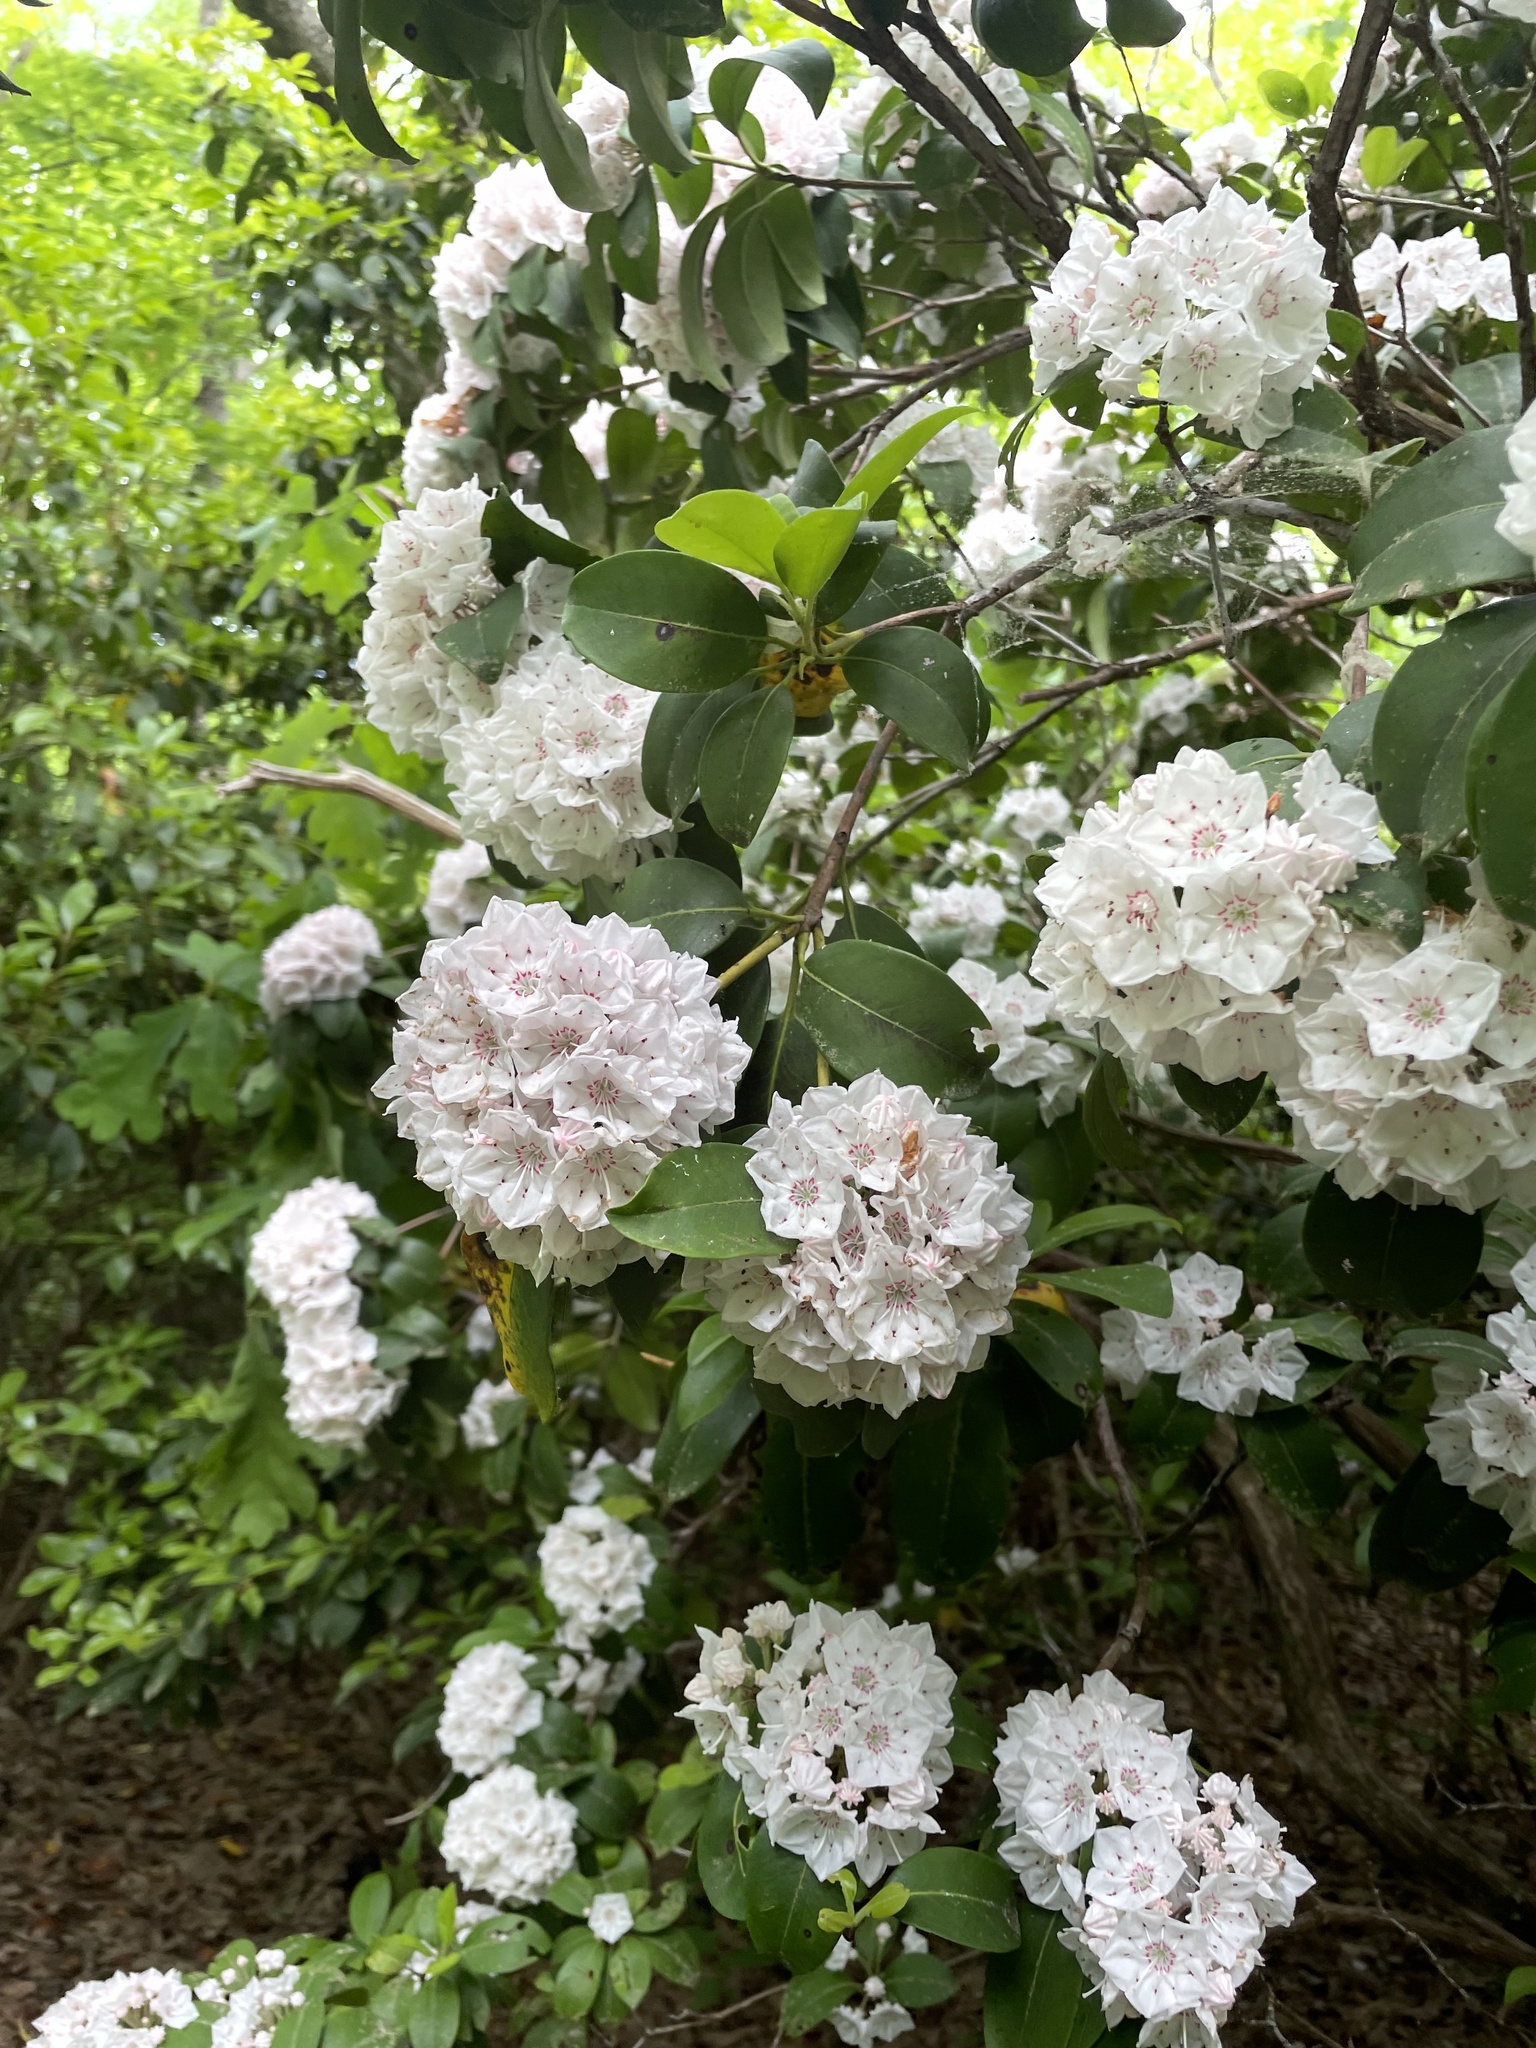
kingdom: Plantae
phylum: Tracheophyta
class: Magnoliopsida
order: Ericales
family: Ericaceae
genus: Kalmia
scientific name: Kalmia latifolia
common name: Mountain-laurel
